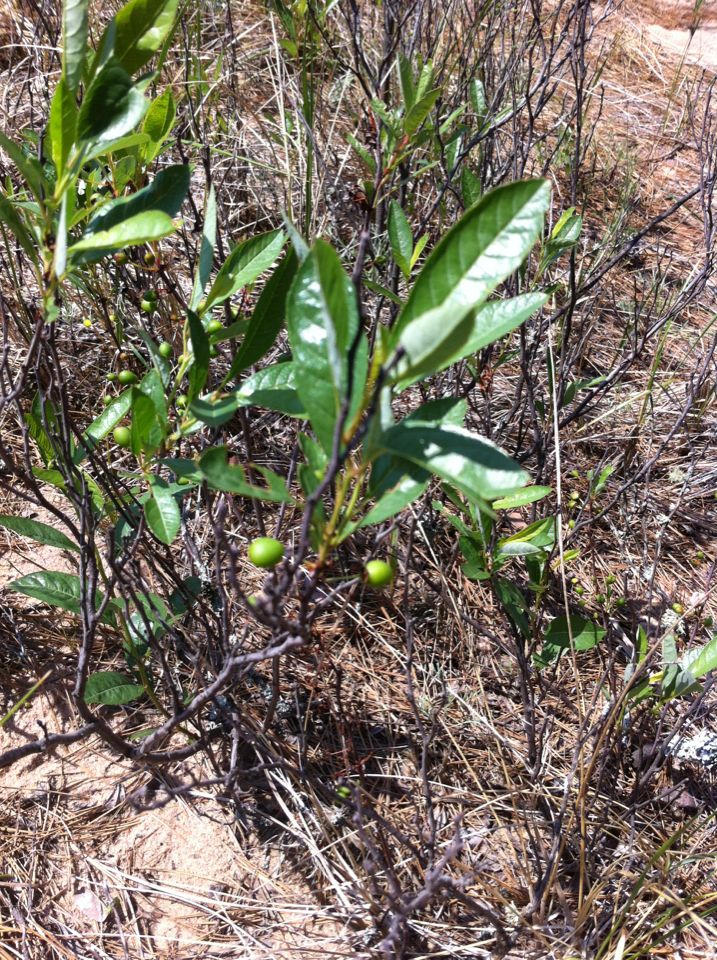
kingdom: Plantae
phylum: Tracheophyta
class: Magnoliopsida
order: Rosales
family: Rosaceae
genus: Prunus
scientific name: Prunus pumila
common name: Dwarf cherry
